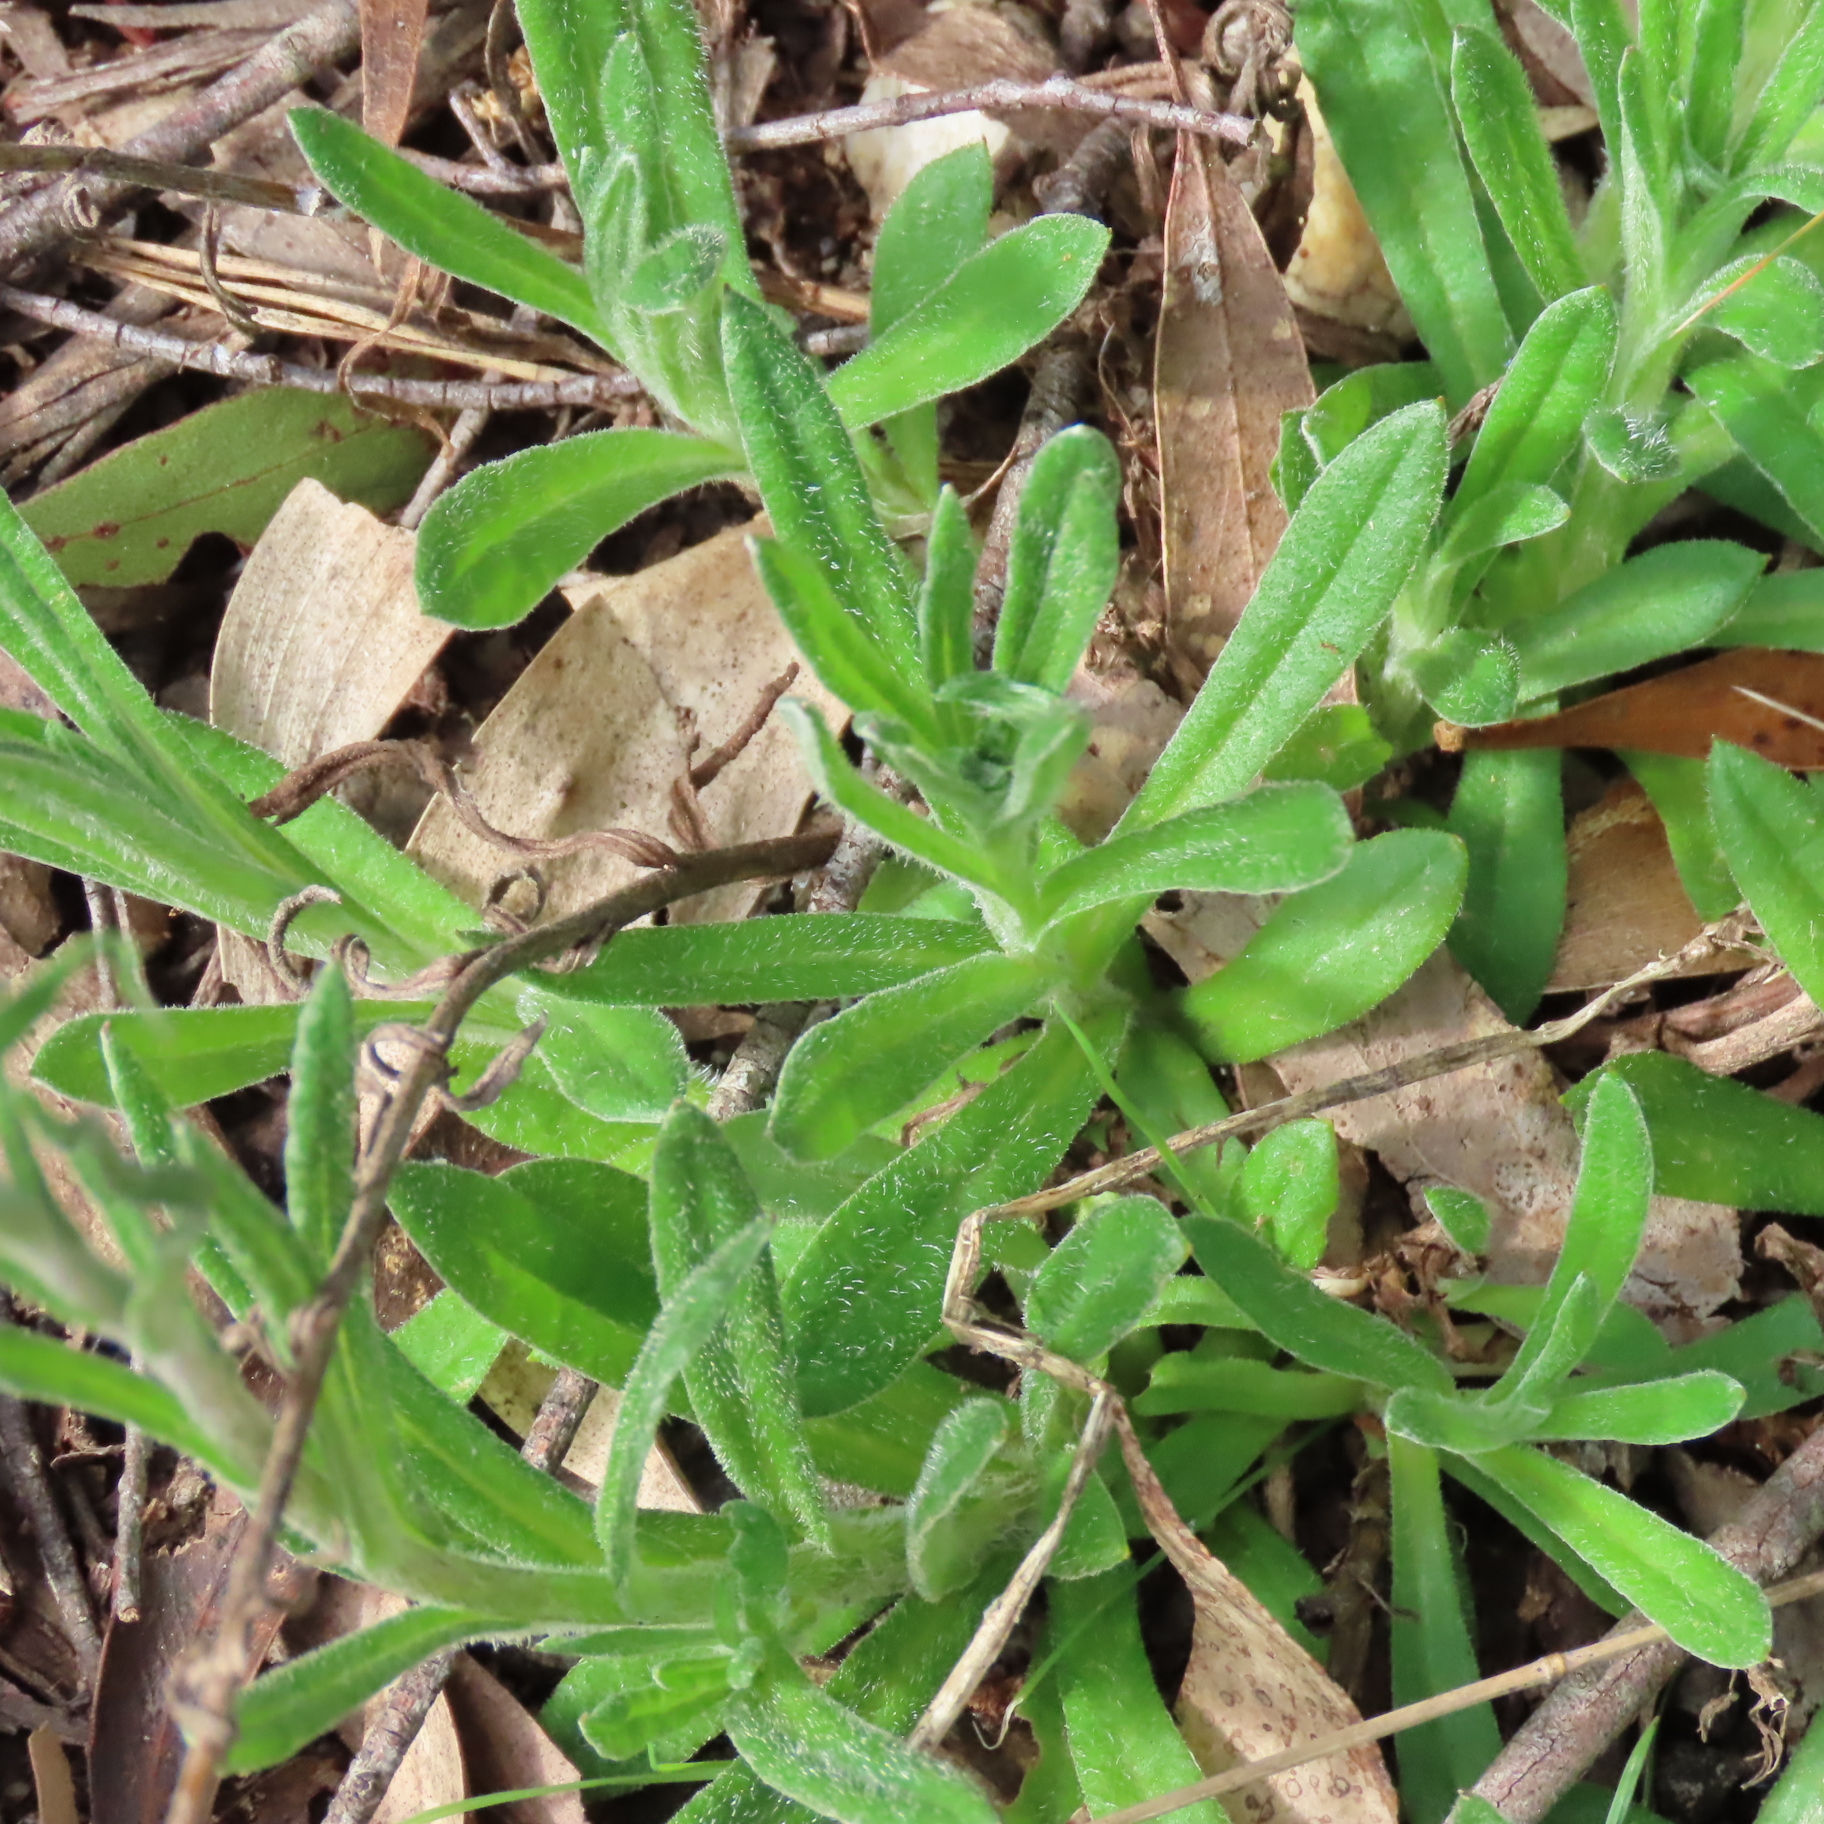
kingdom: Plantae
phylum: Tracheophyta
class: Magnoliopsida
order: Asterales
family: Asteraceae
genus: Coronidium
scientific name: Coronidium scorpioides
